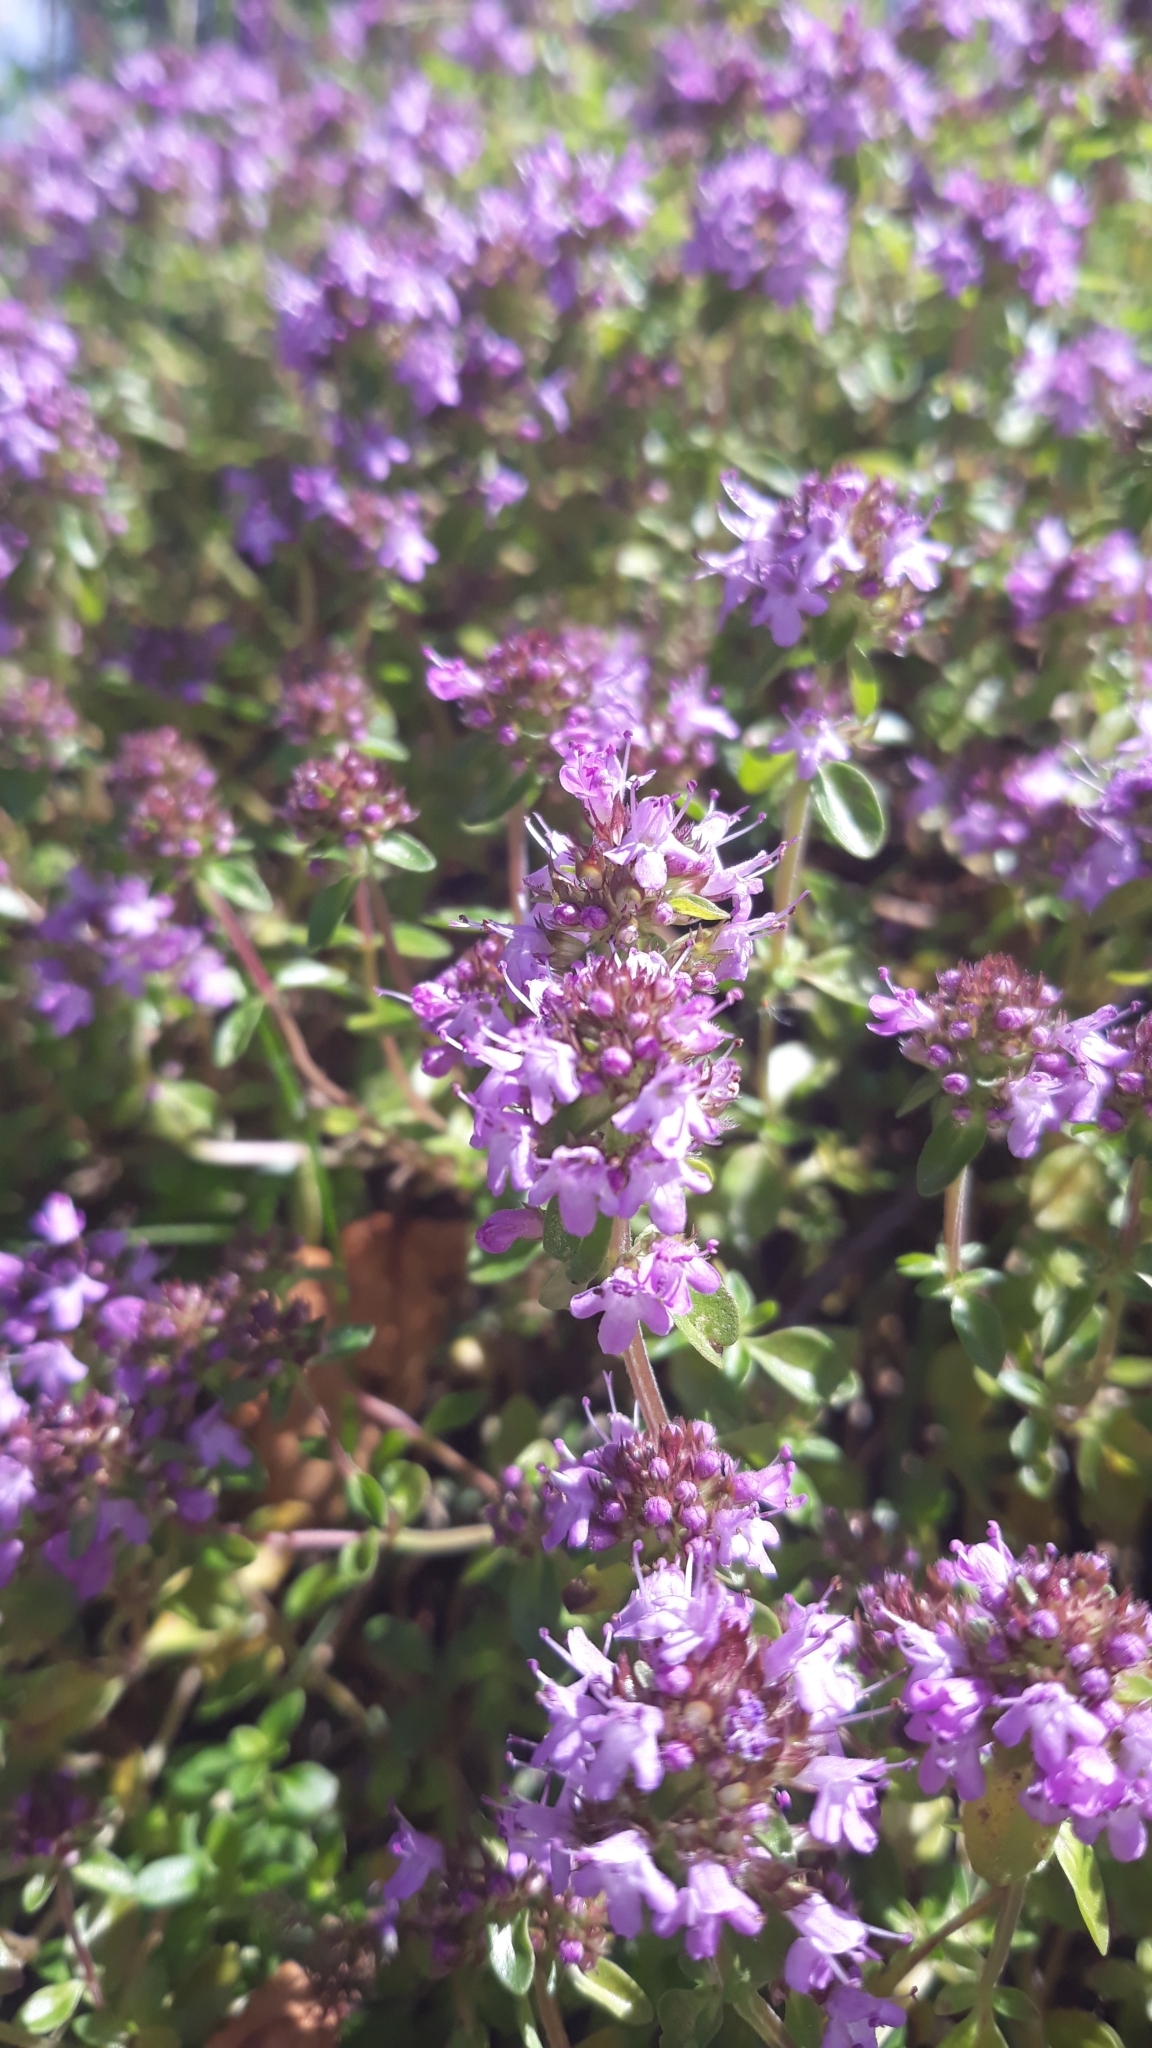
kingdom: Plantae
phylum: Tracheophyta
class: Magnoliopsida
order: Lamiales
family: Lamiaceae
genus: Thymus
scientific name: Thymus pulegioides
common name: Large thyme
